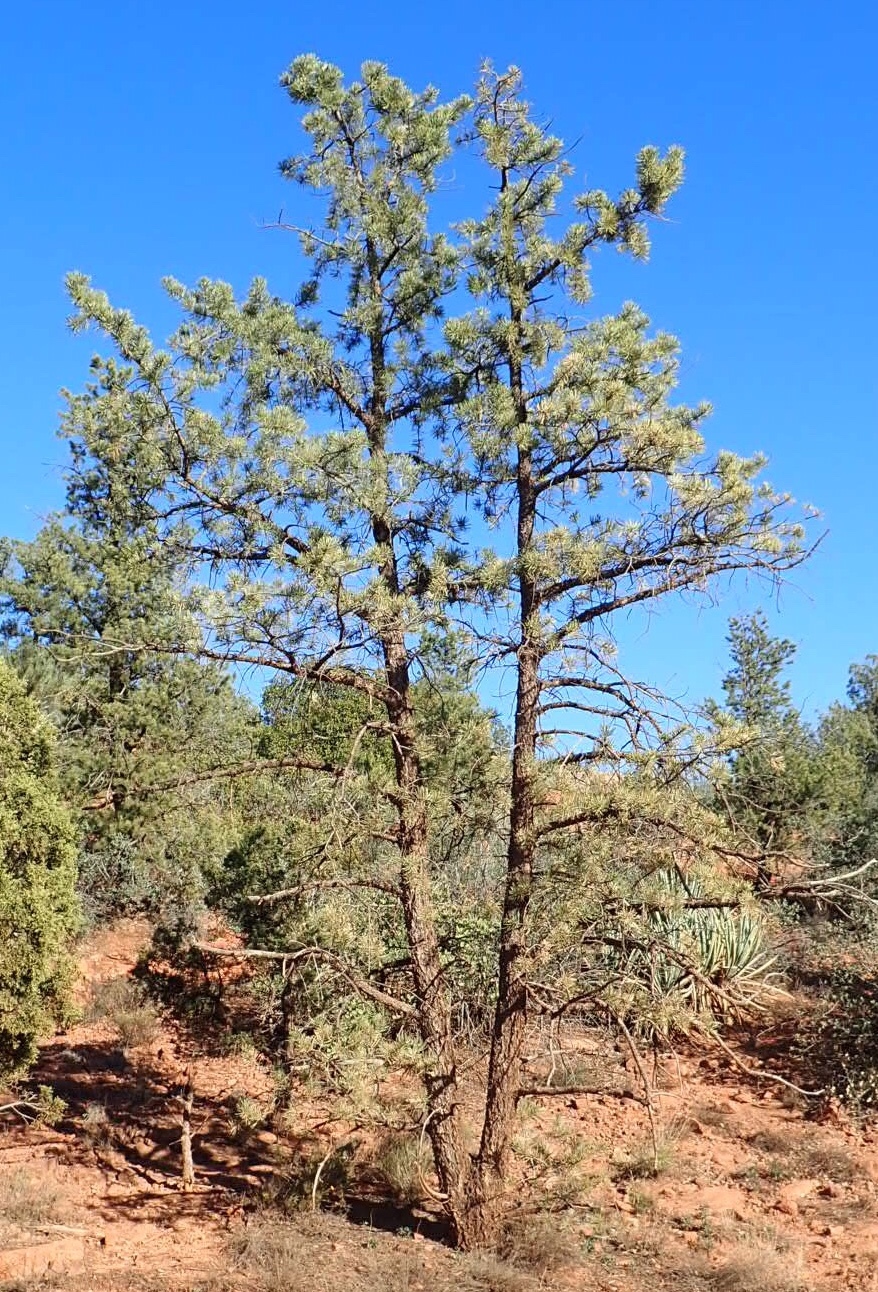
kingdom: Plantae
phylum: Tracheophyta
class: Pinopsida
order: Pinales
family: Pinaceae
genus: Pinus
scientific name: Pinus ponderosa
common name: Western yellow-pine
